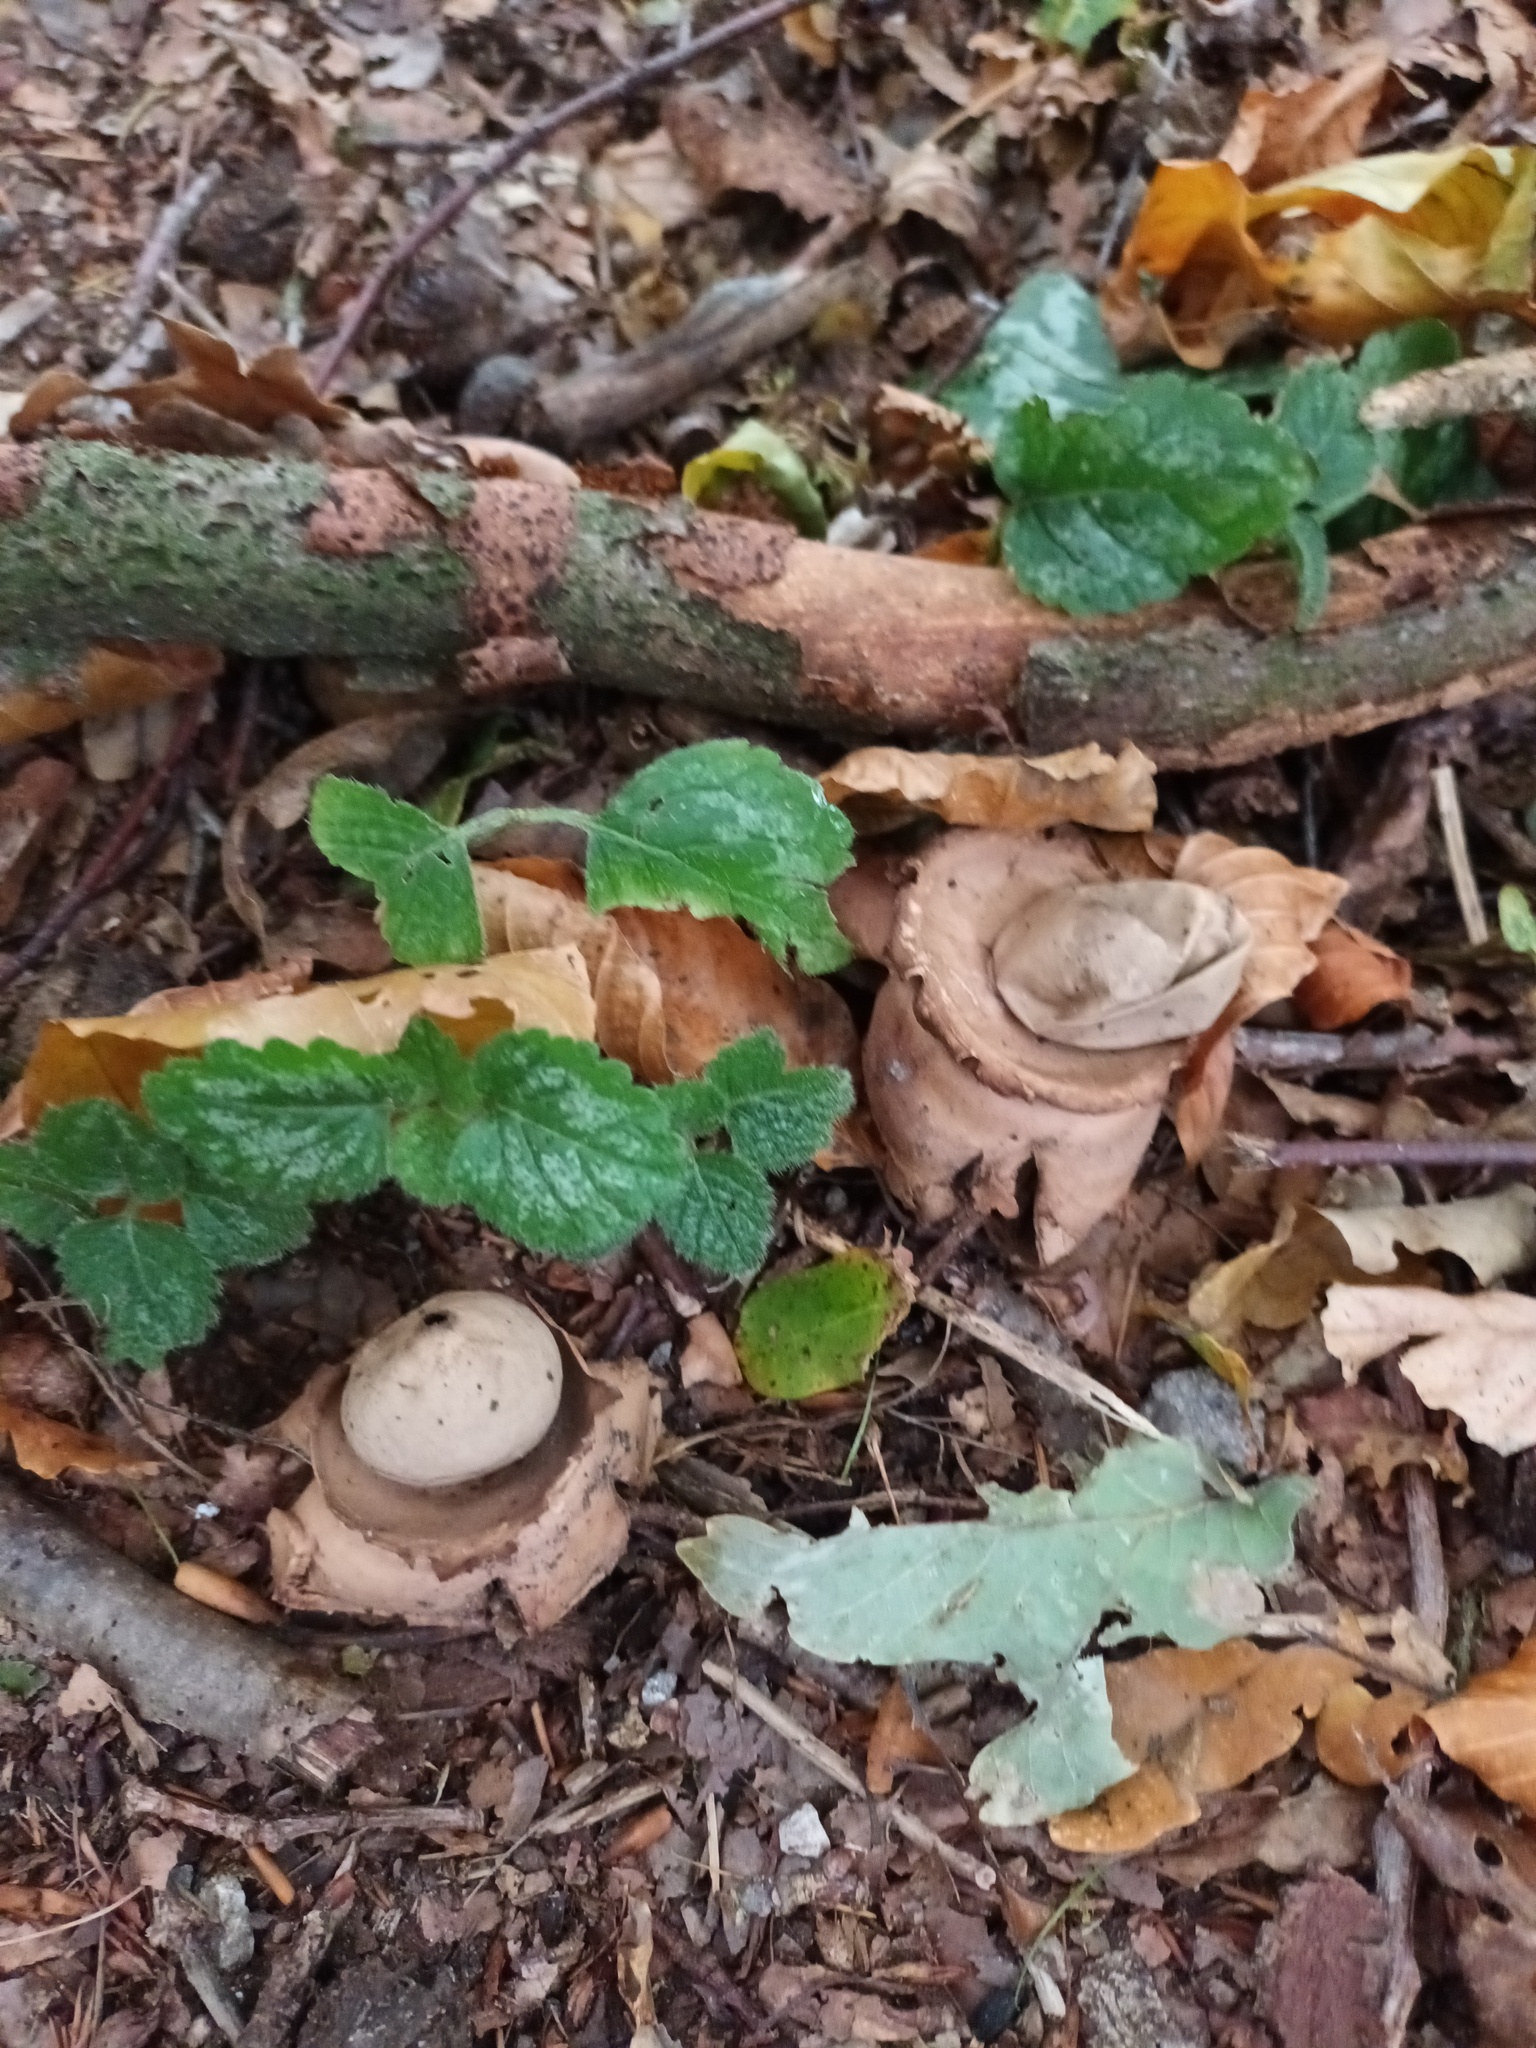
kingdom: Fungi
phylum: Basidiomycota
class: Agaricomycetes
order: Geastrales
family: Geastraceae
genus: Geastrum
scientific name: Geastrum michelianum
